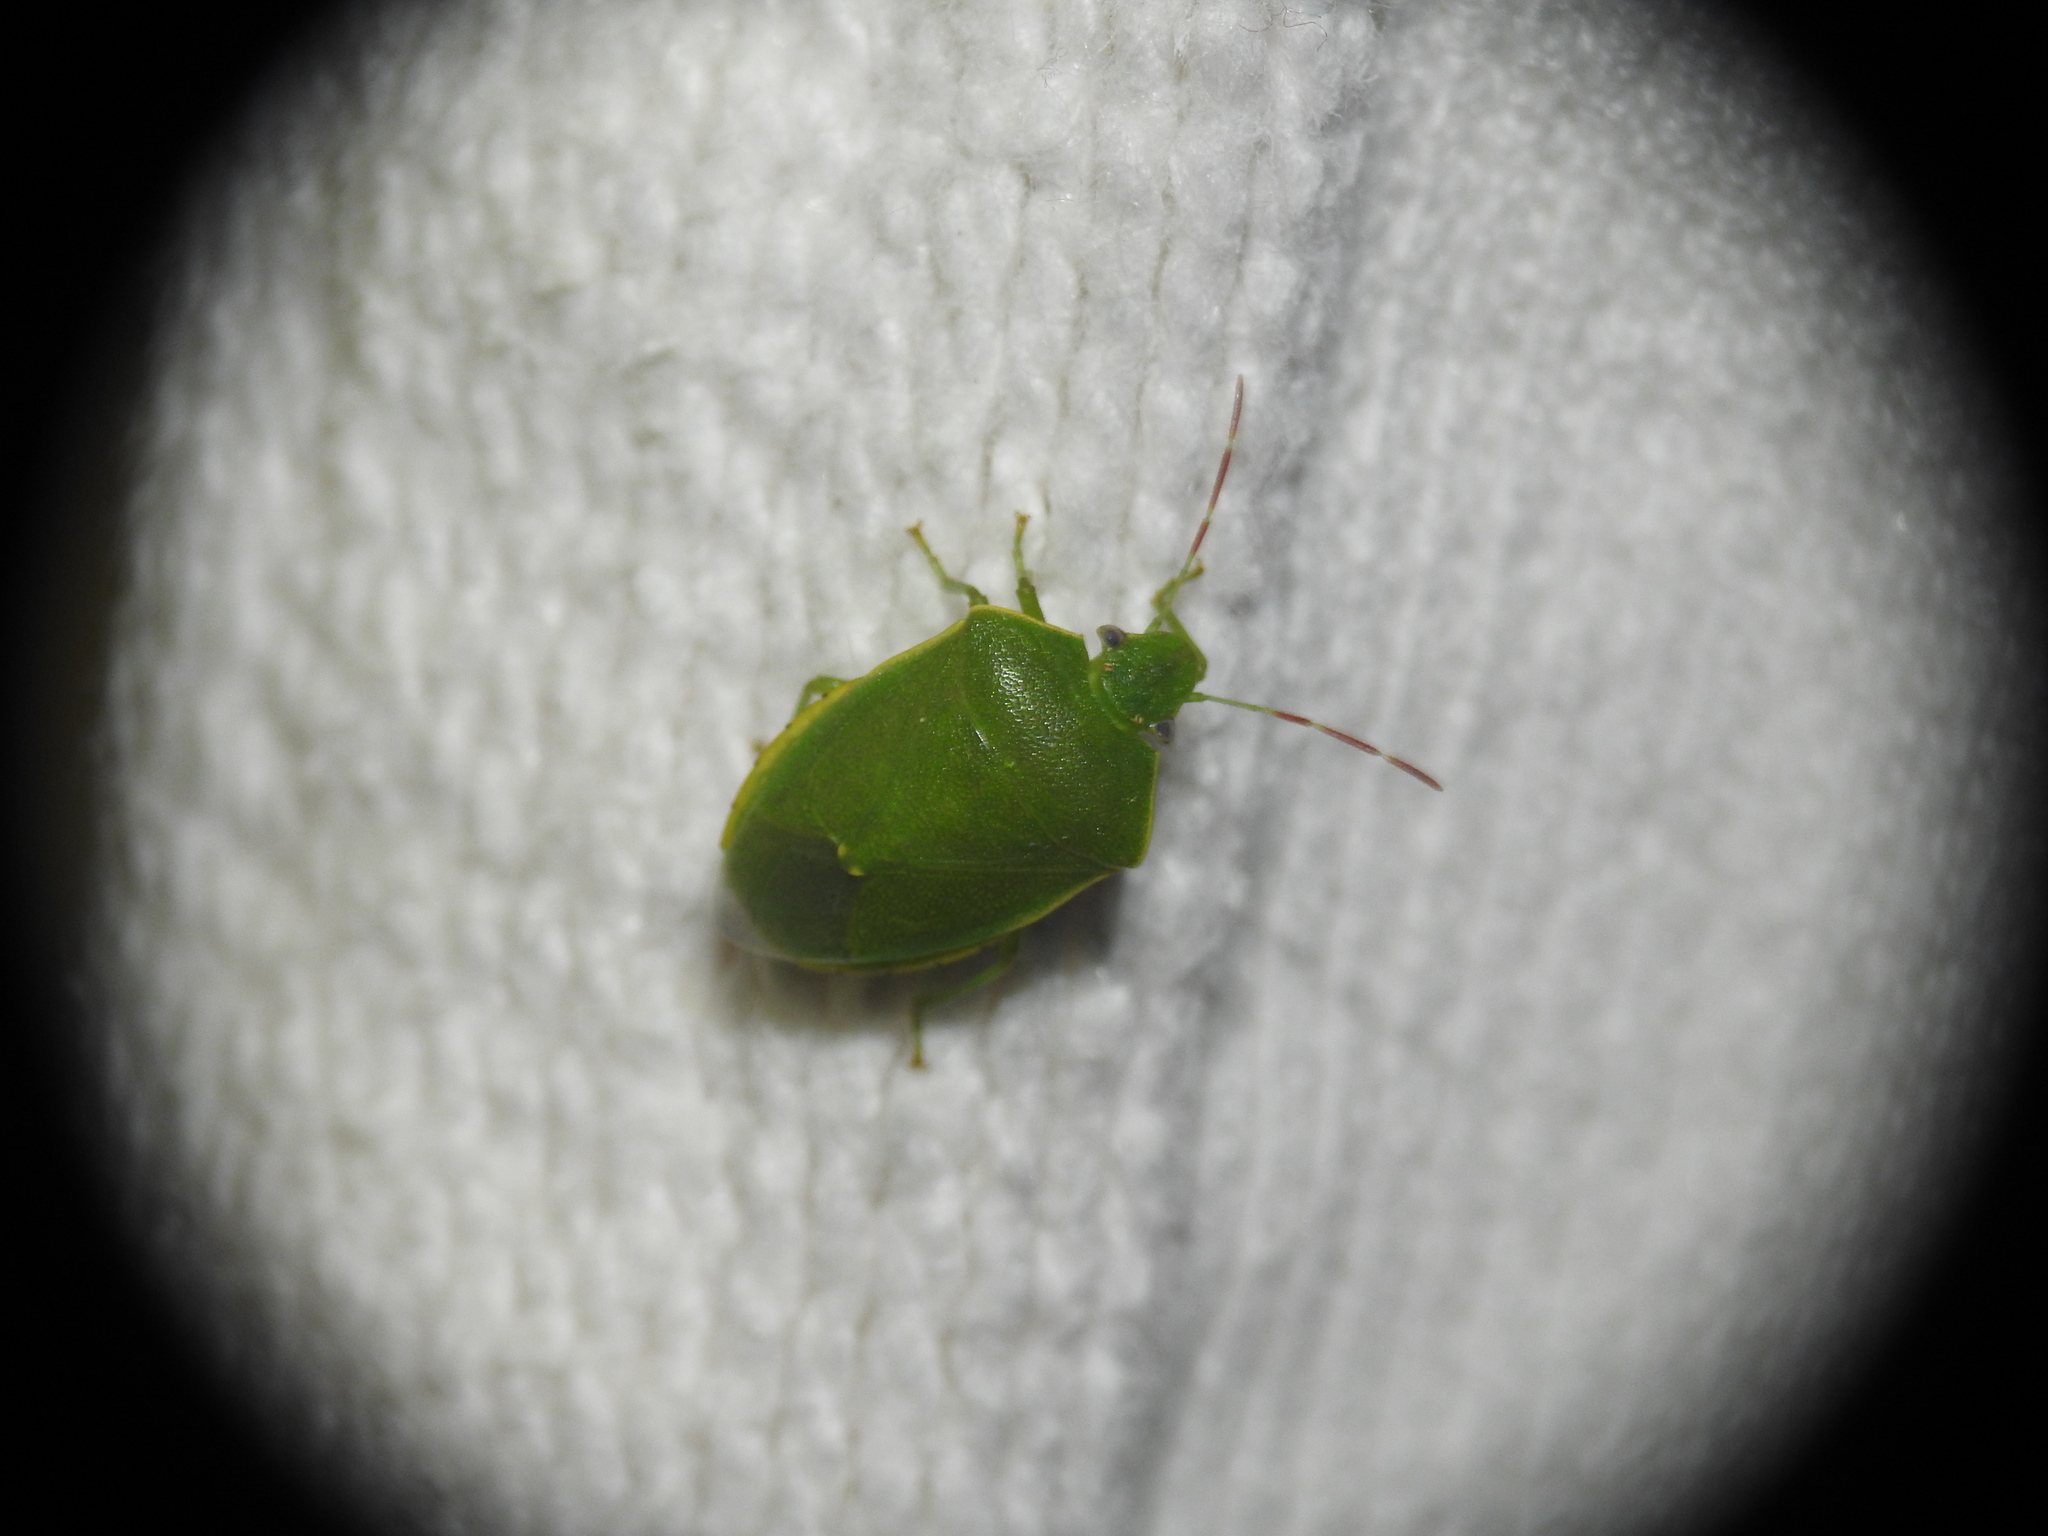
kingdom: Animalia
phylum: Arthropoda
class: Insecta
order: Hemiptera
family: Pentatomidae
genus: Acrosternum
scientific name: Acrosternum heegeri
